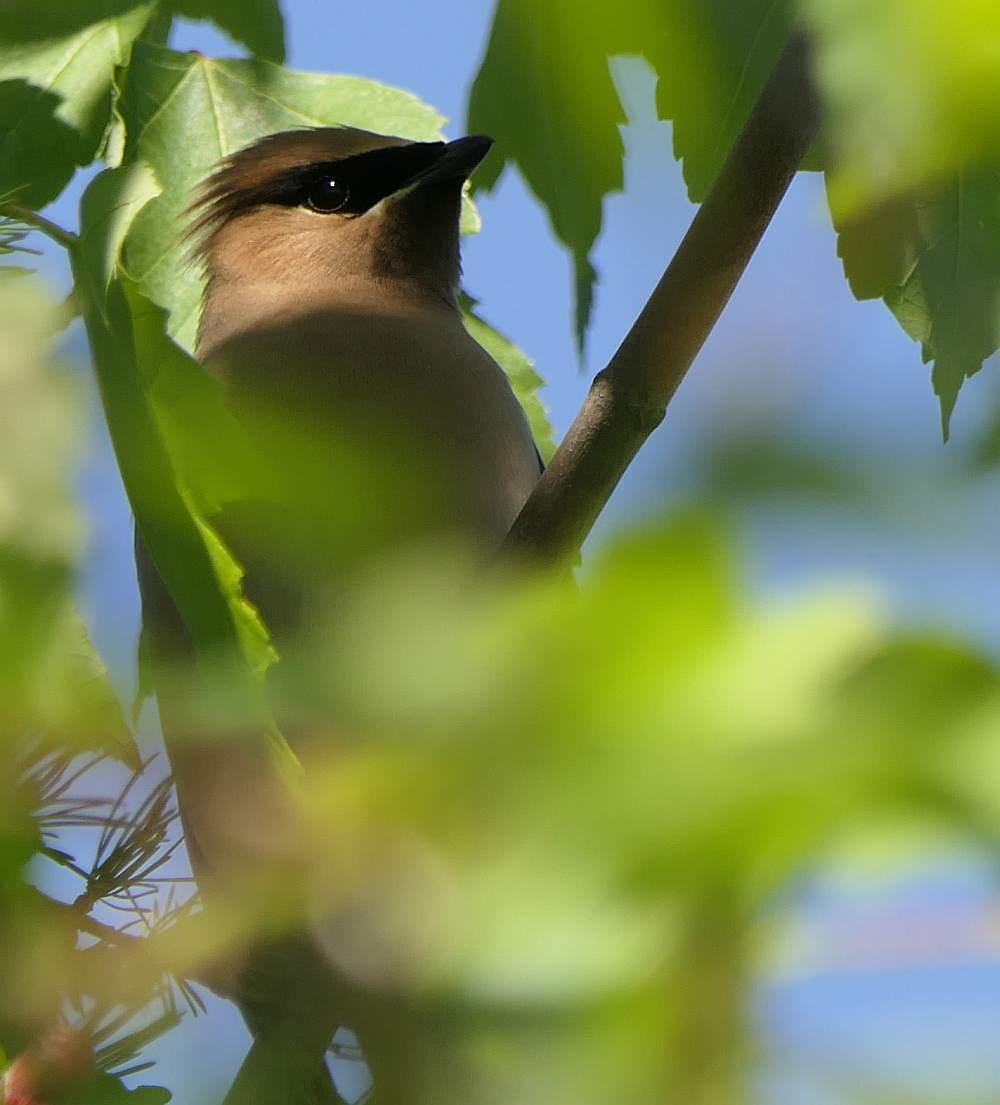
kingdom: Animalia
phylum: Chordata
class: Aves
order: Passeriformes
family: Bombycillidae
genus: Bombycilla
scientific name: Bombycilla cedrorum
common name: Cedar waxwing
